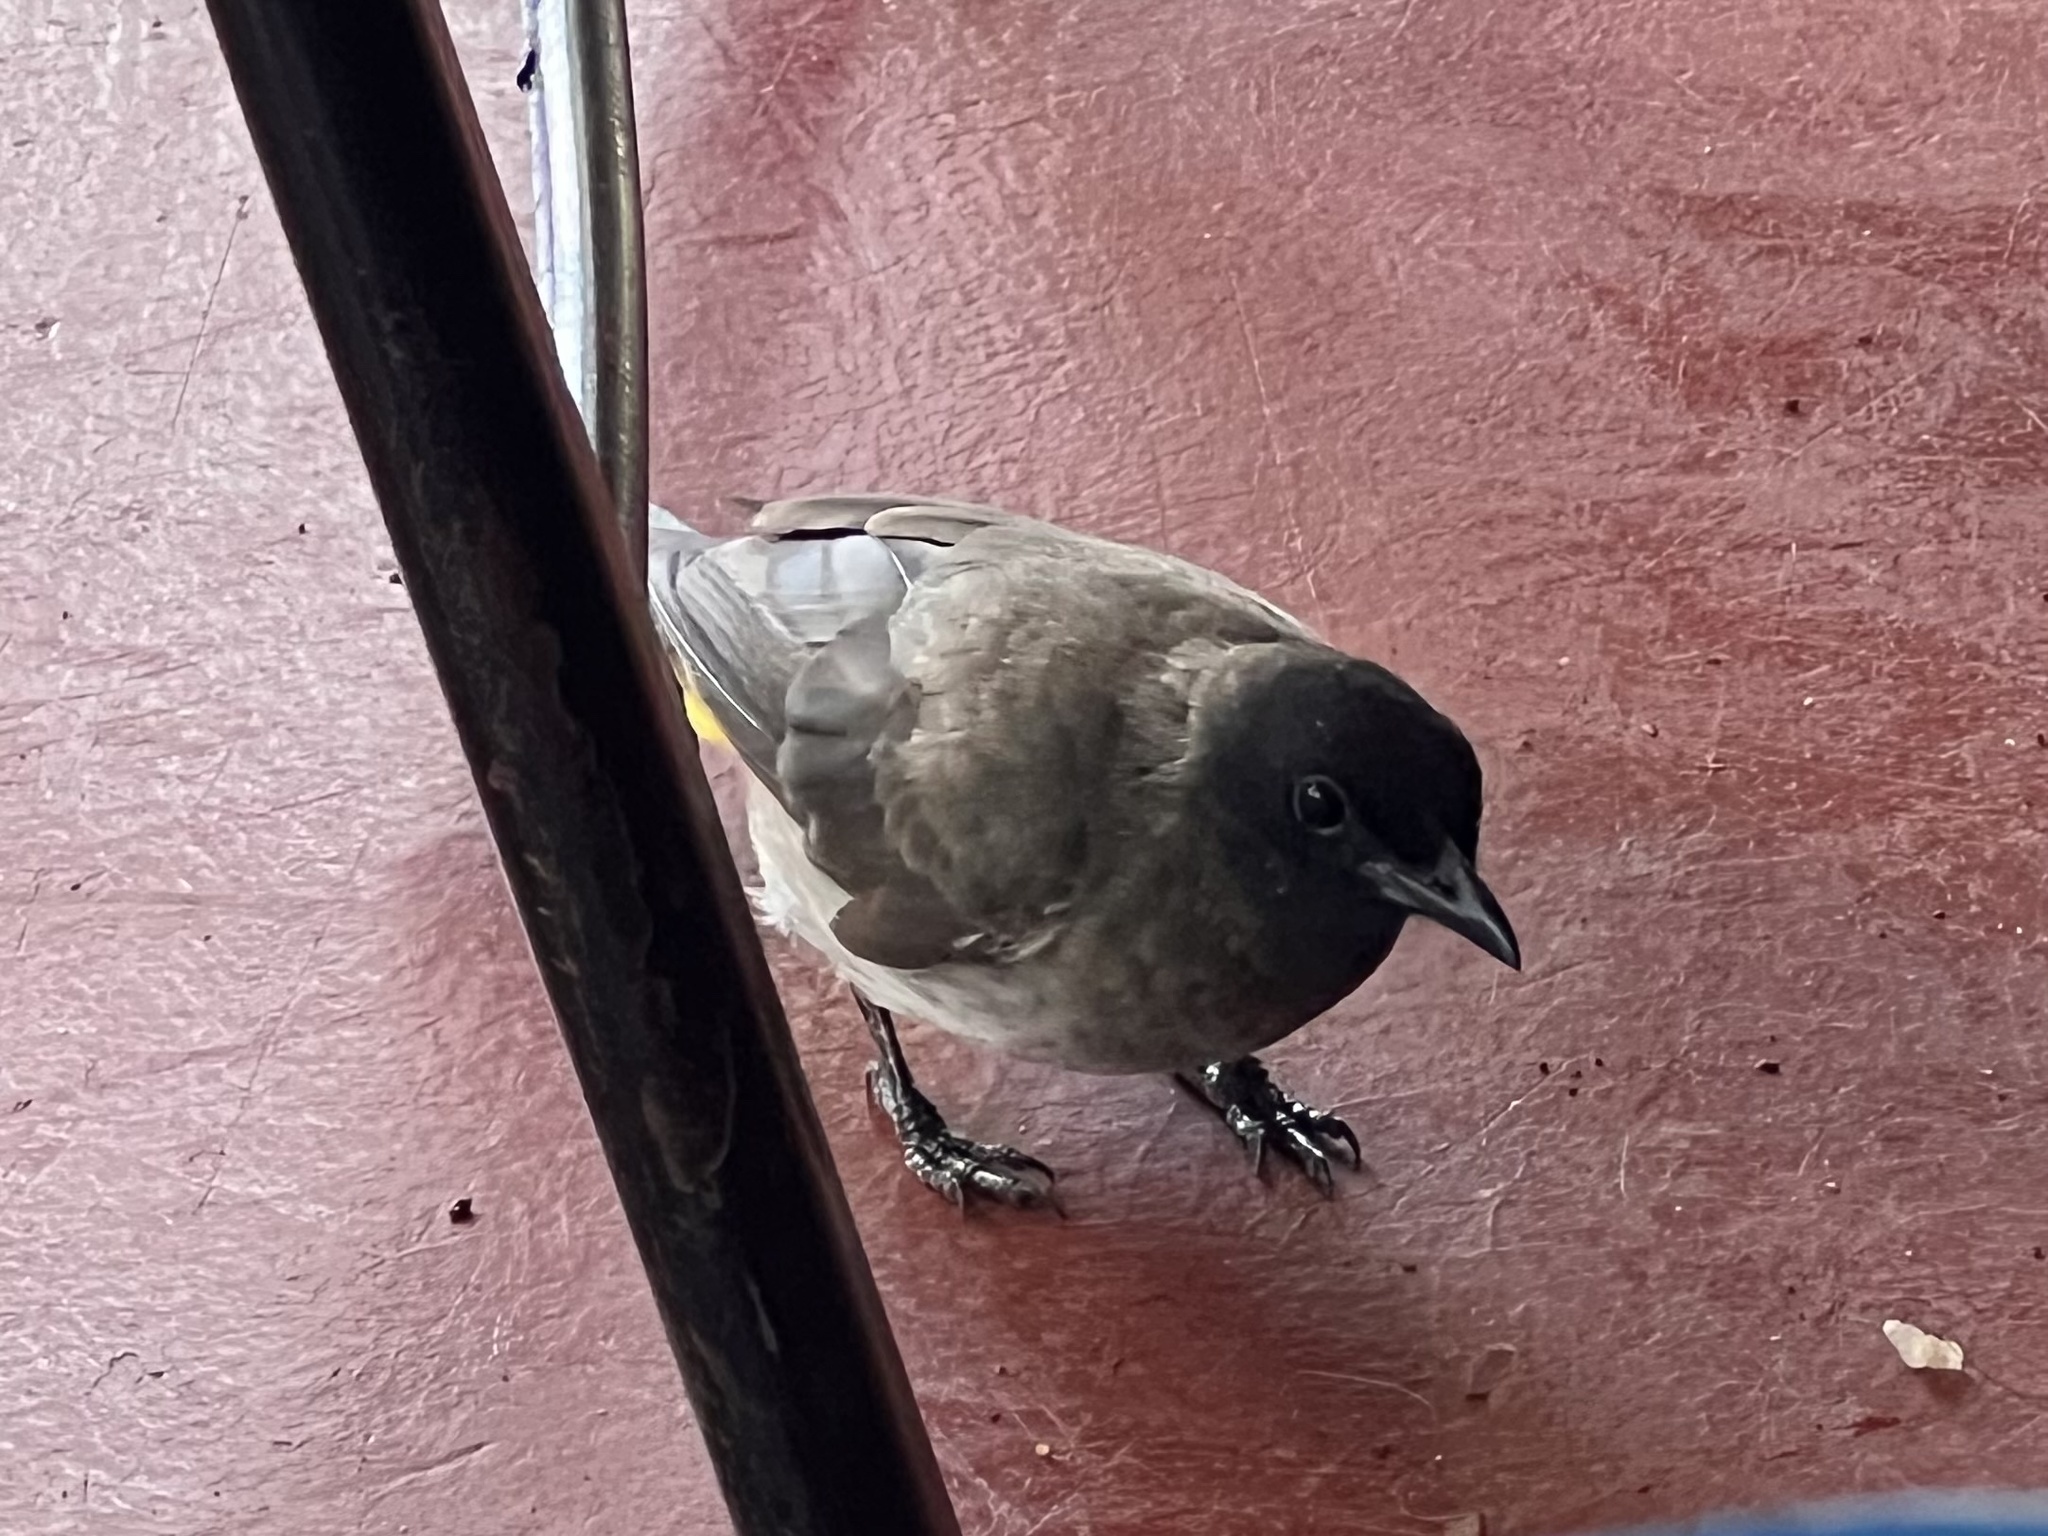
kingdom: Animalia
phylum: Chordata
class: Aves
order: Passeriformes
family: Pycnonotidae
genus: Pycnonotus
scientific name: Pycnonotus barbatus
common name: Common bulbul
